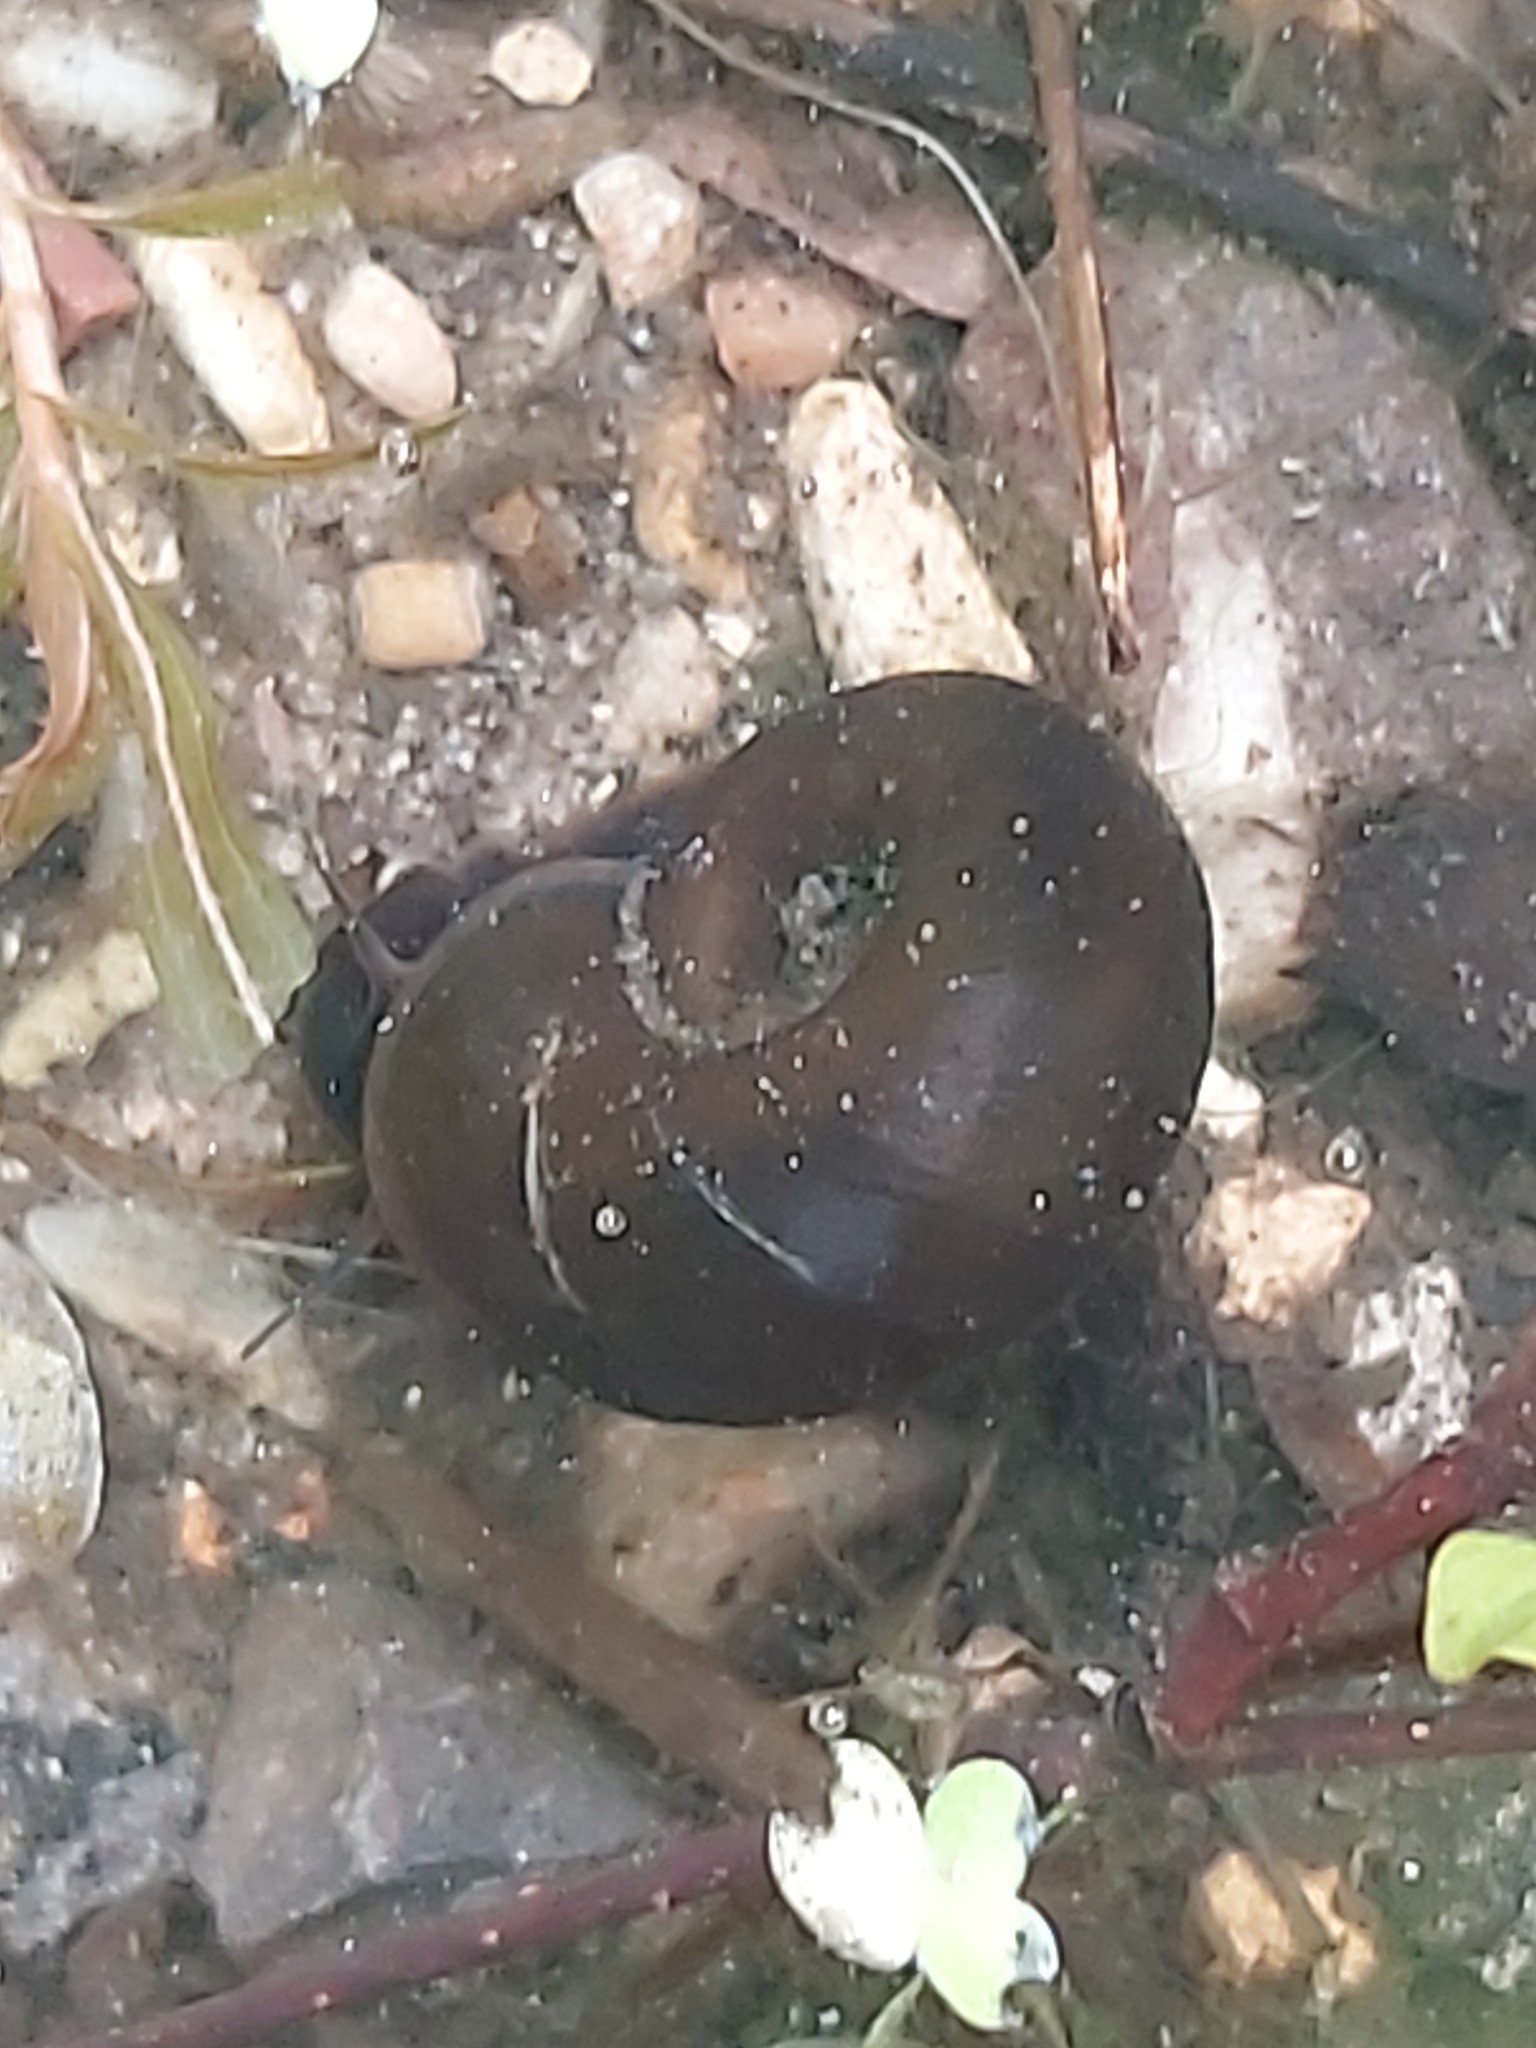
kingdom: Animalia
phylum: Mollusca
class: Gastropoda
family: Planorbidae
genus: Planorbarius
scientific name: Planorbarius corneus
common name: Great ramshorn
